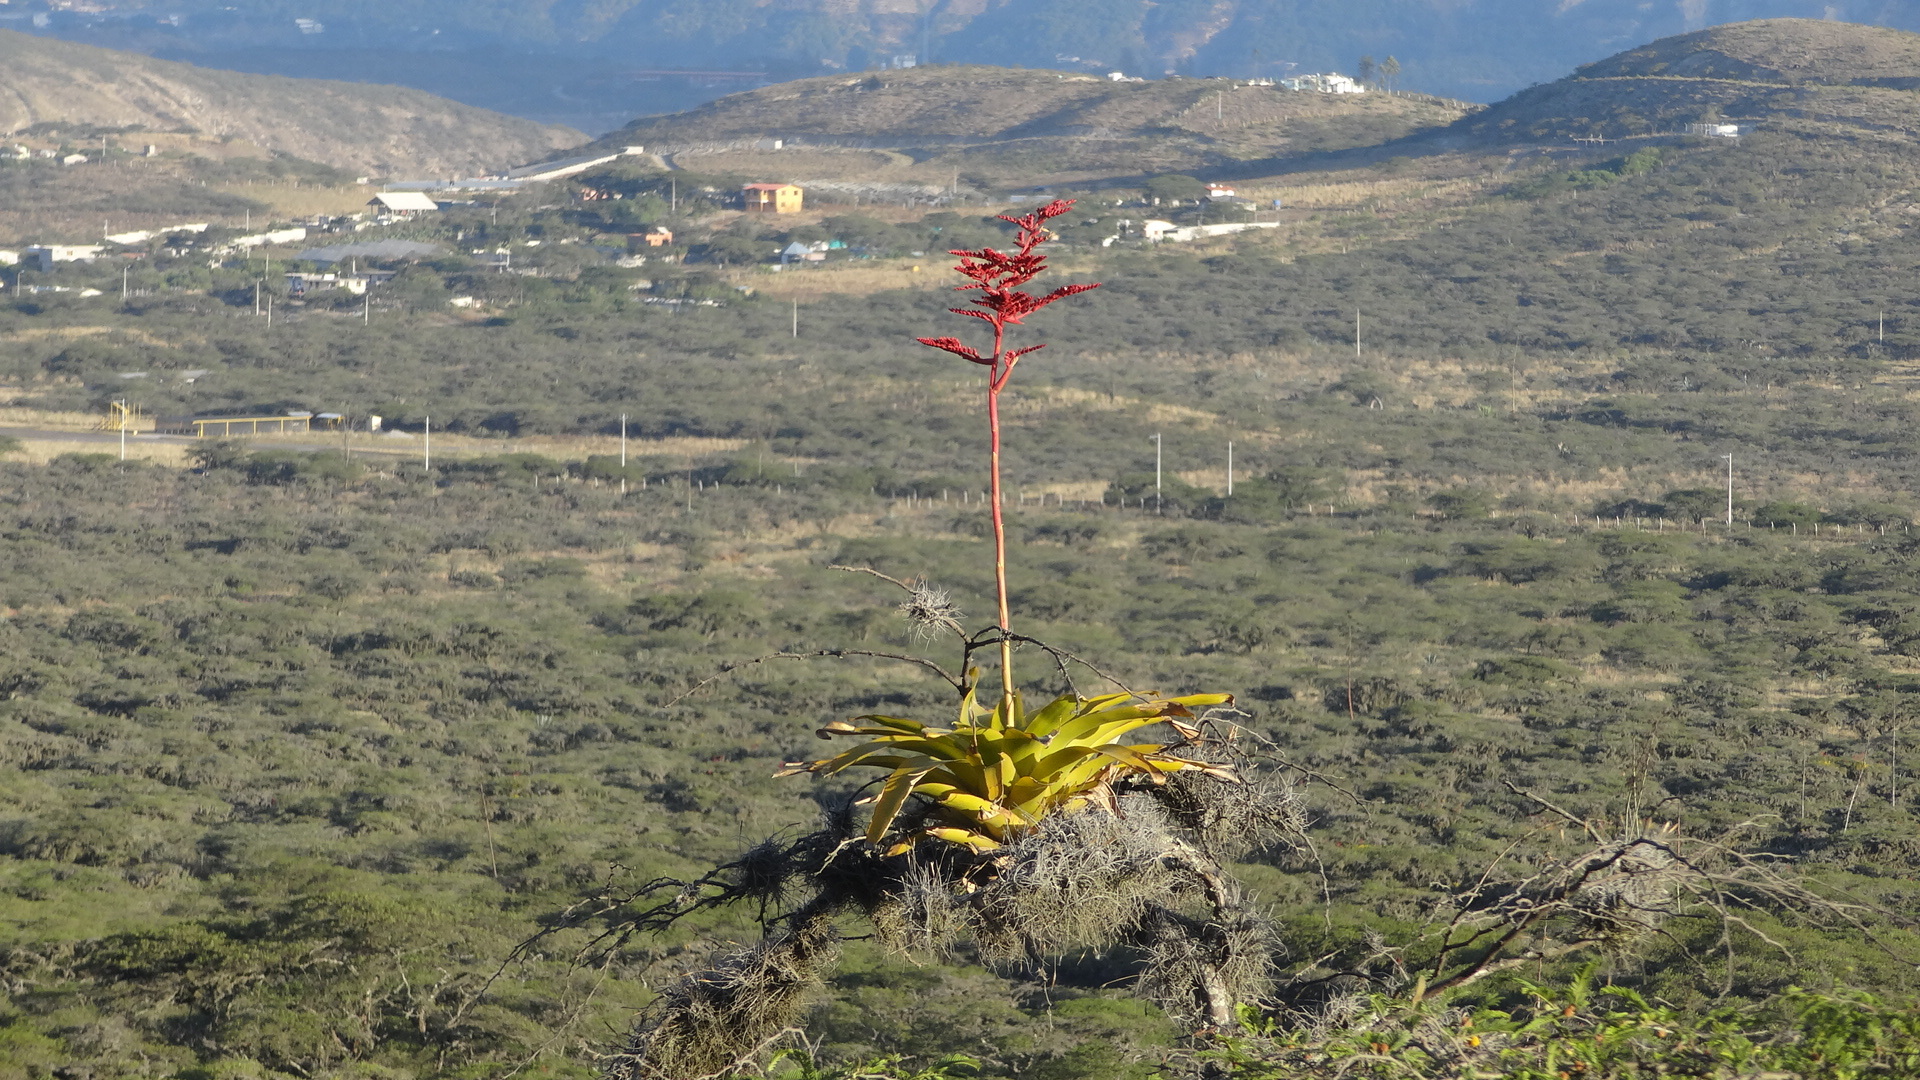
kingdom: Plantae
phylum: Tracheophyta
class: Liliopsida
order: Poales
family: Bromeliaceae
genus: Racinaea
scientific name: Racinaea fraseri
